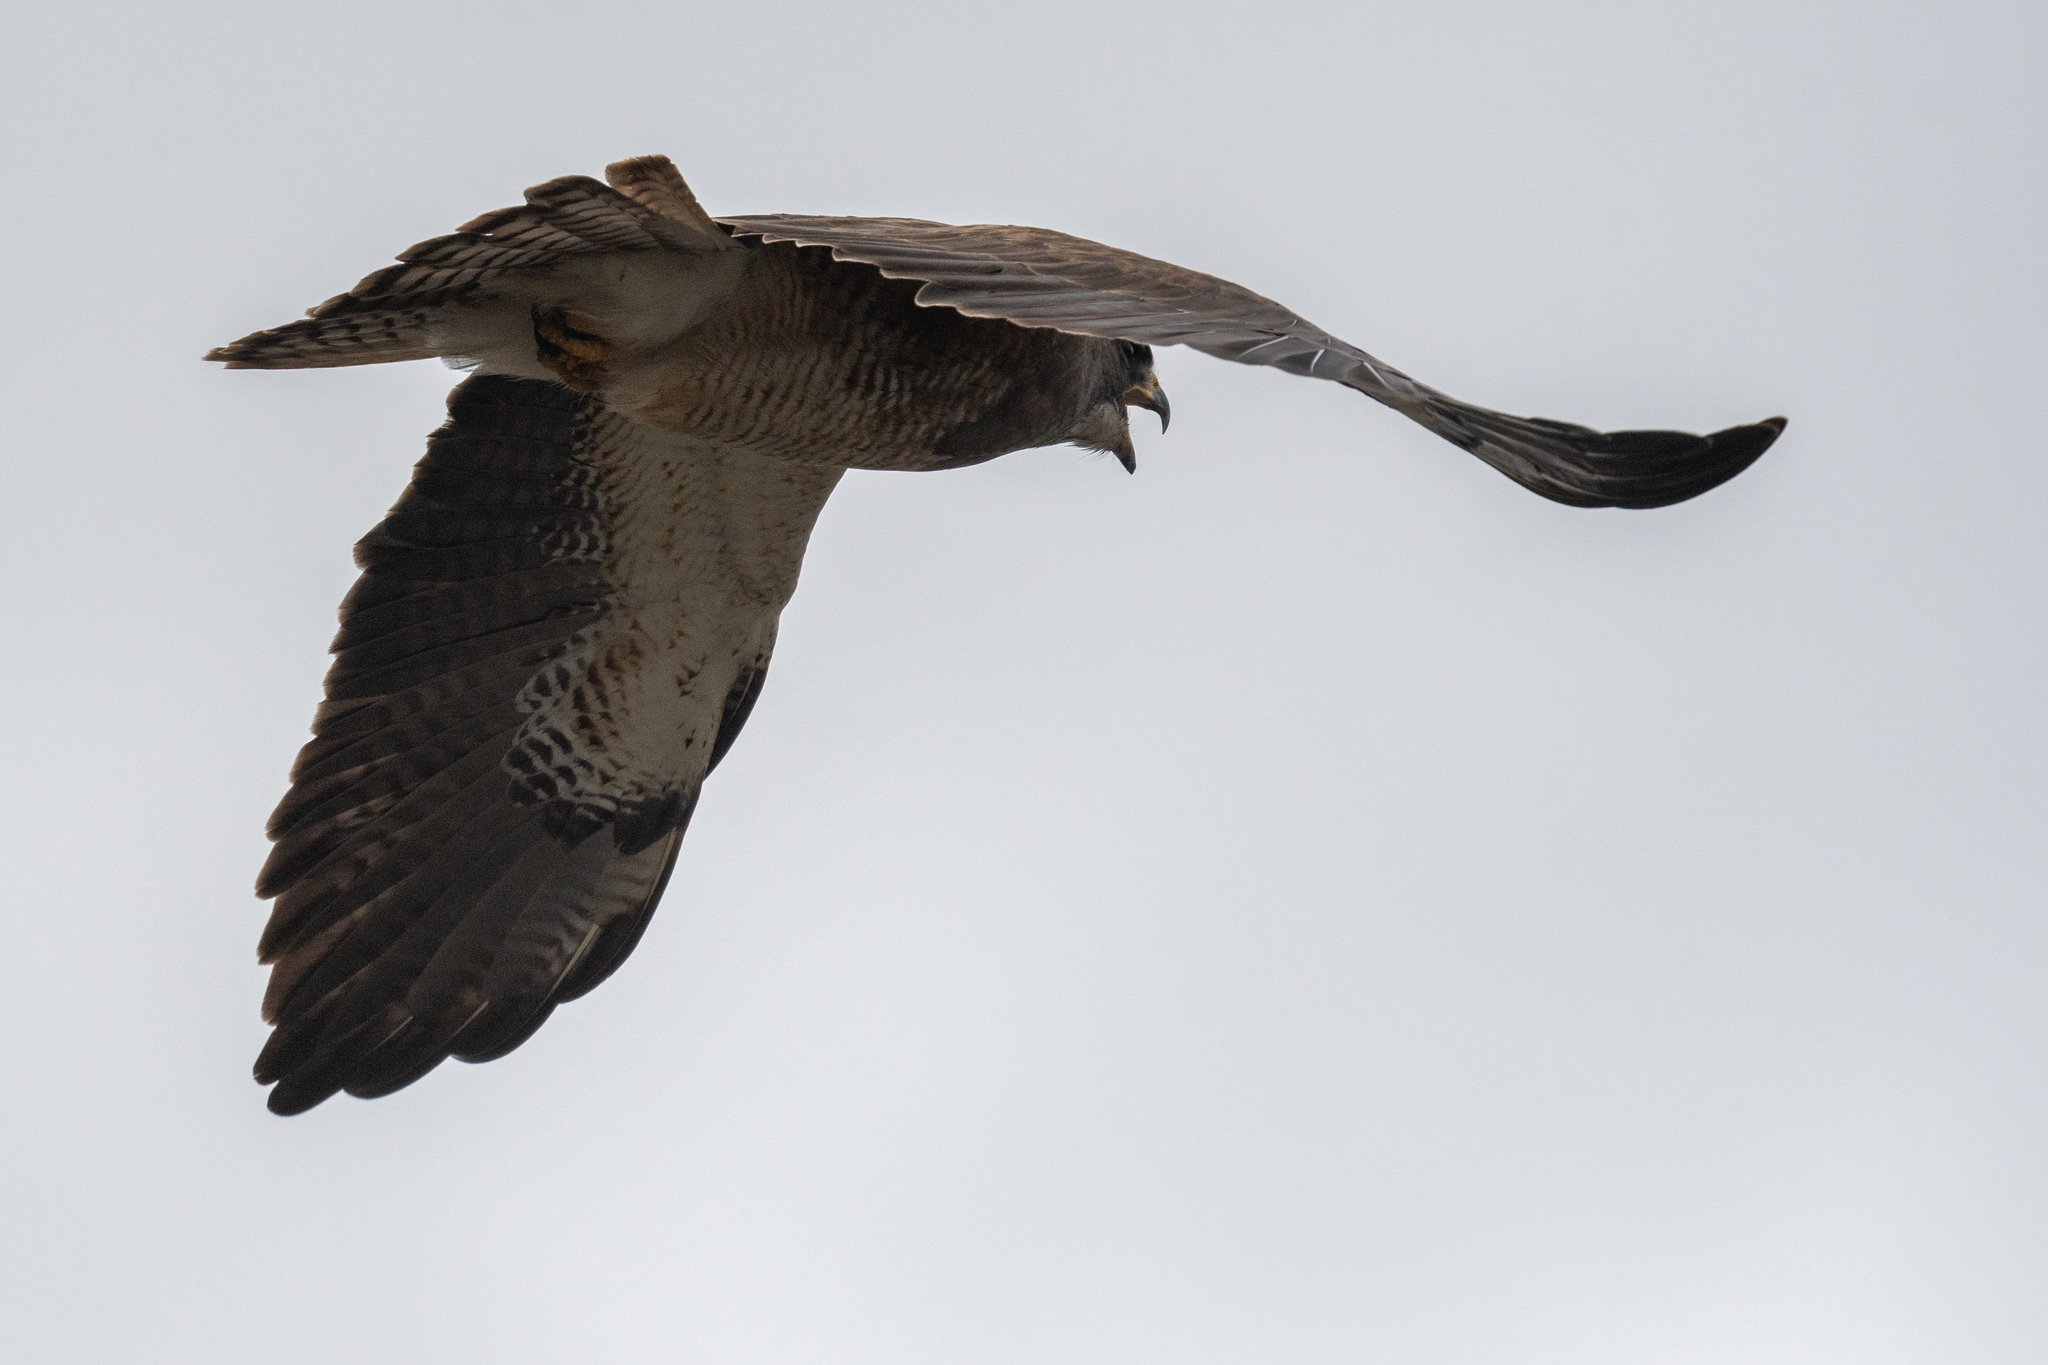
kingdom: Animalia
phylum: Chordata
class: Aves
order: Accipitriformes
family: Accipitridae
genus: Buteo
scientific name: Buteo swainsoni
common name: Swainson's hawk
